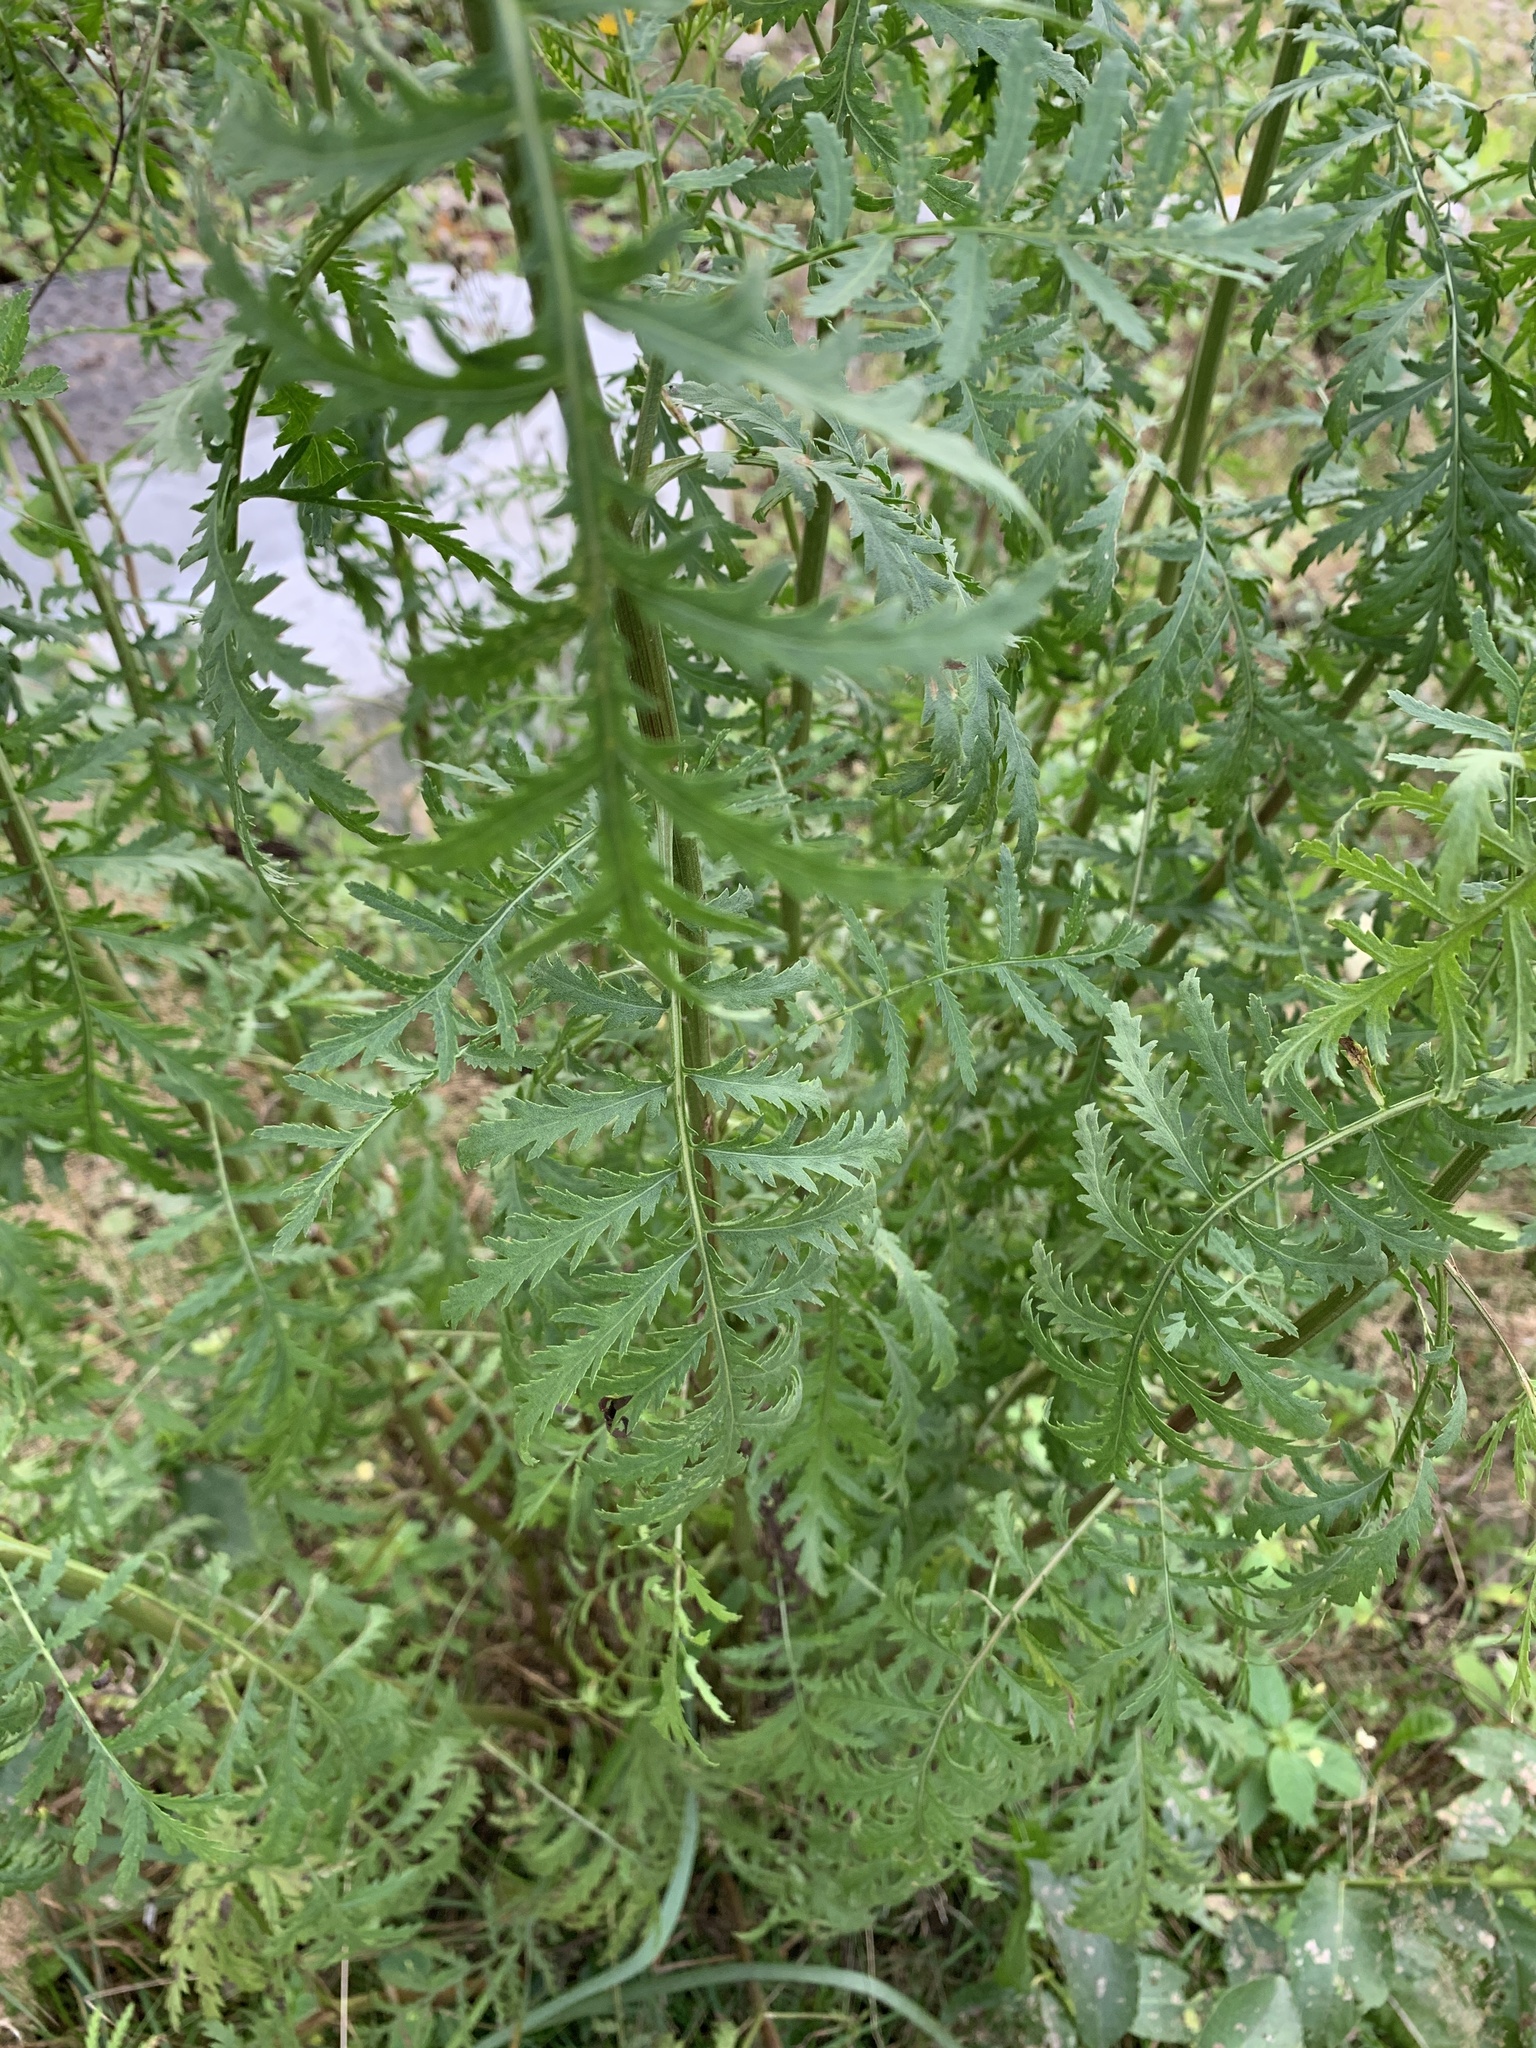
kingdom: Plantae
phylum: Tracheophyta
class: Magnoliopsida
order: Asterales
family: Asteraceae
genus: Tanacetum
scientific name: Tanacetum vulgare
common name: Common tansy
